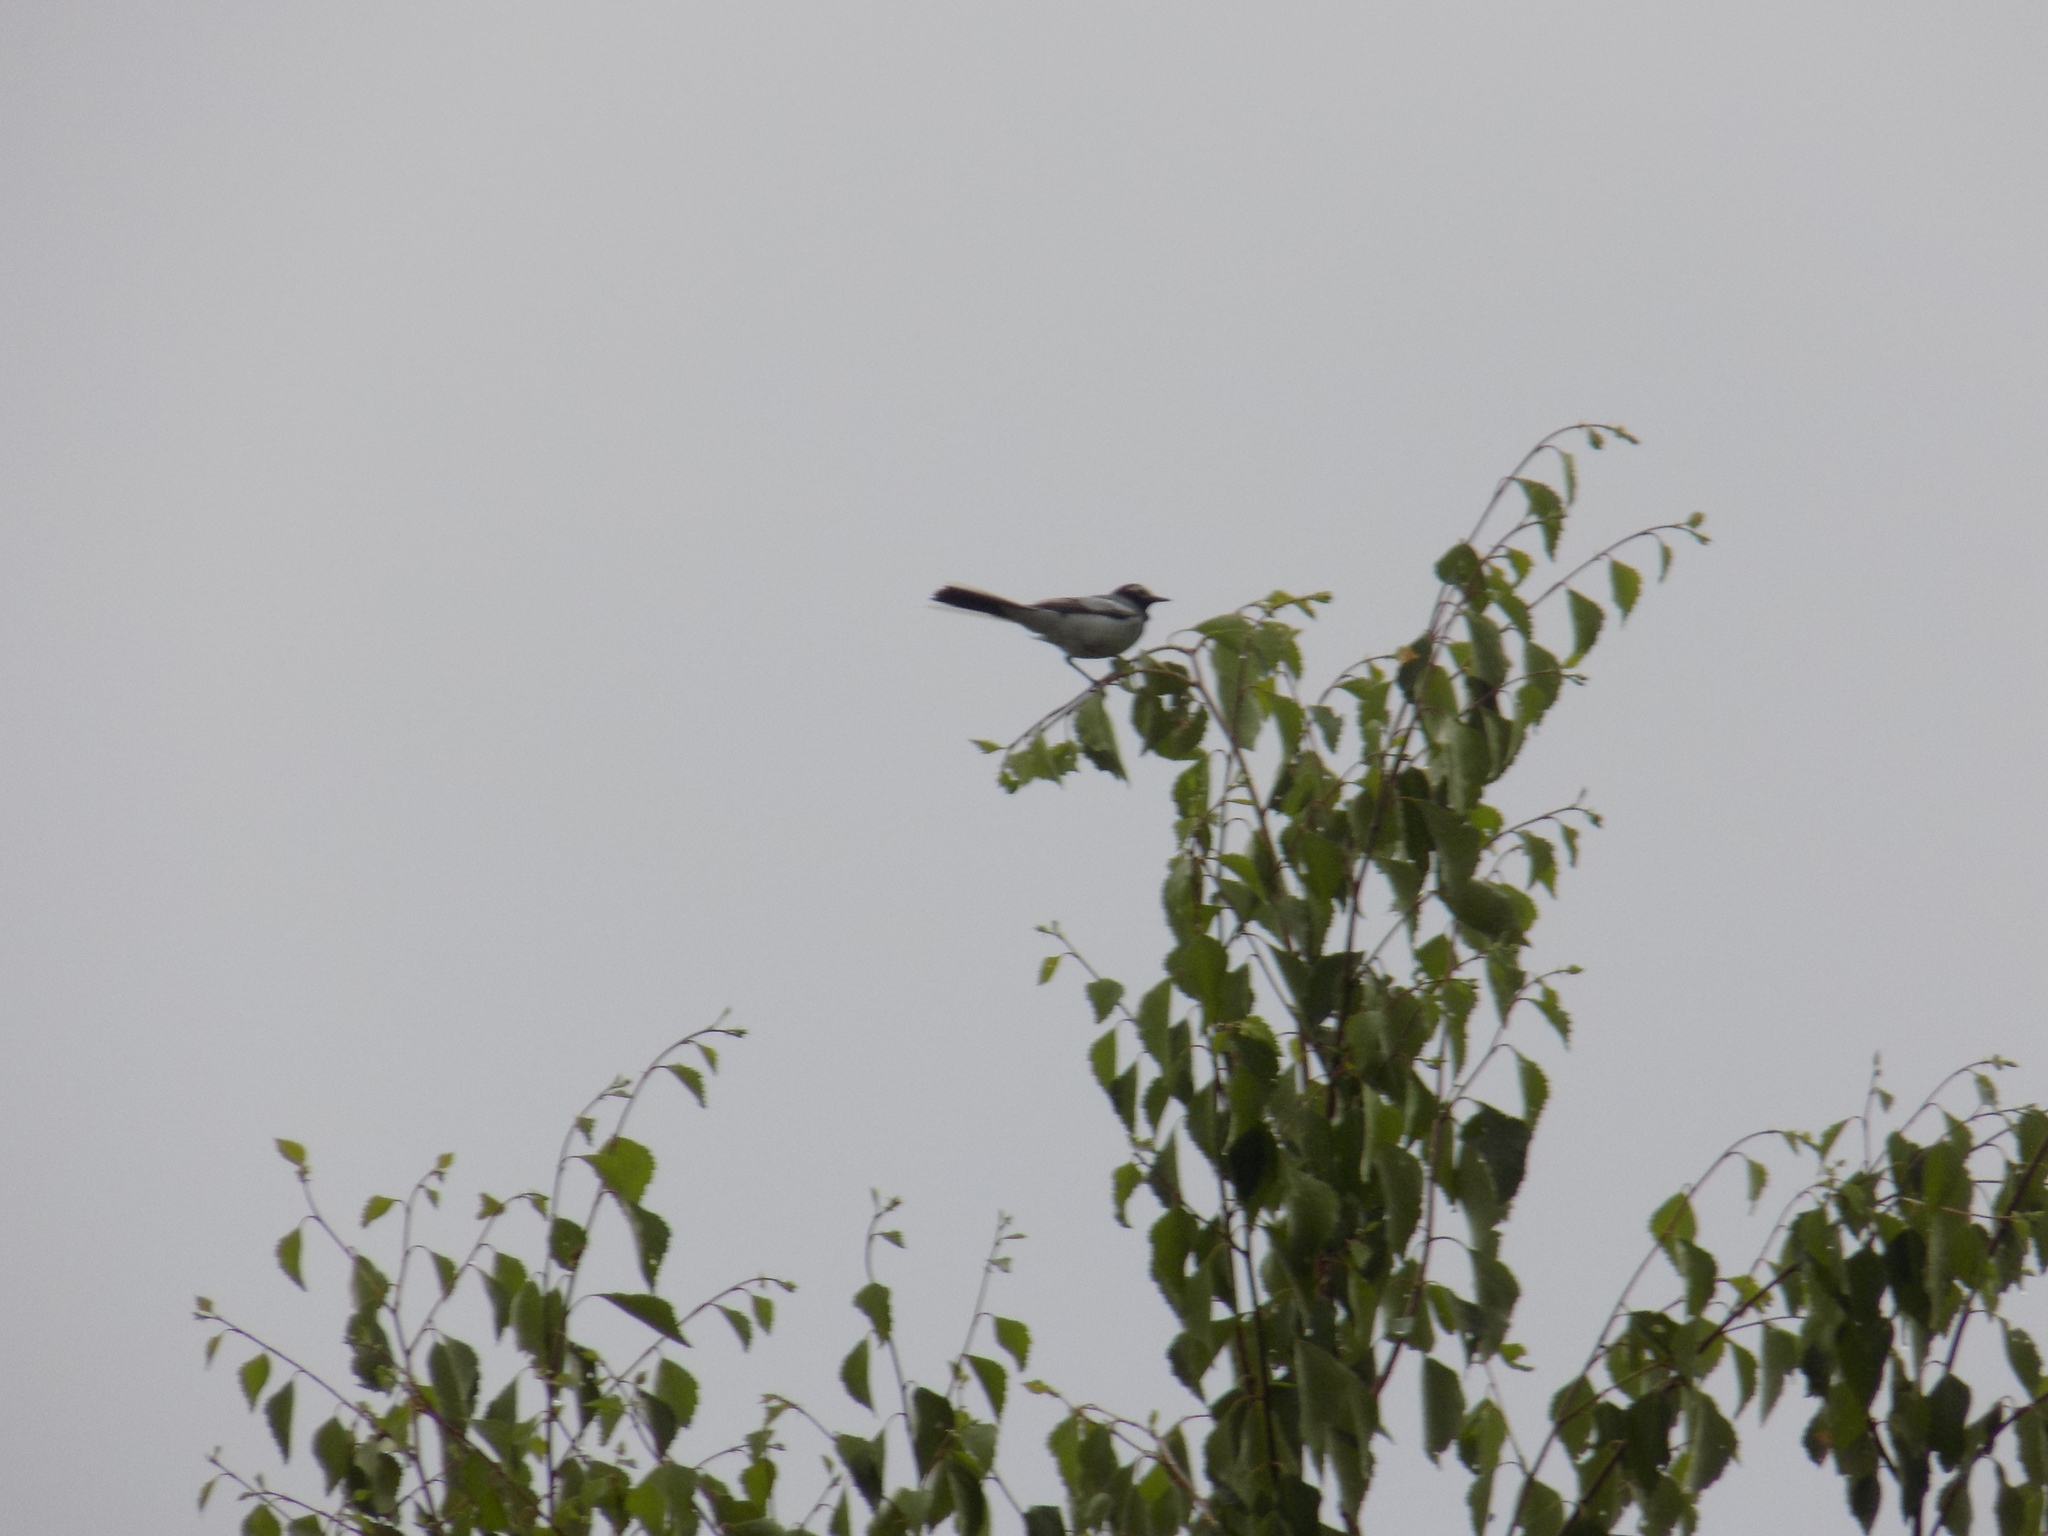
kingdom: Animalia
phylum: Chordata
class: Aves
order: Passeriformes
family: Motacillidae
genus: Motacilla
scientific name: Motacilla alba
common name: White wagtail
